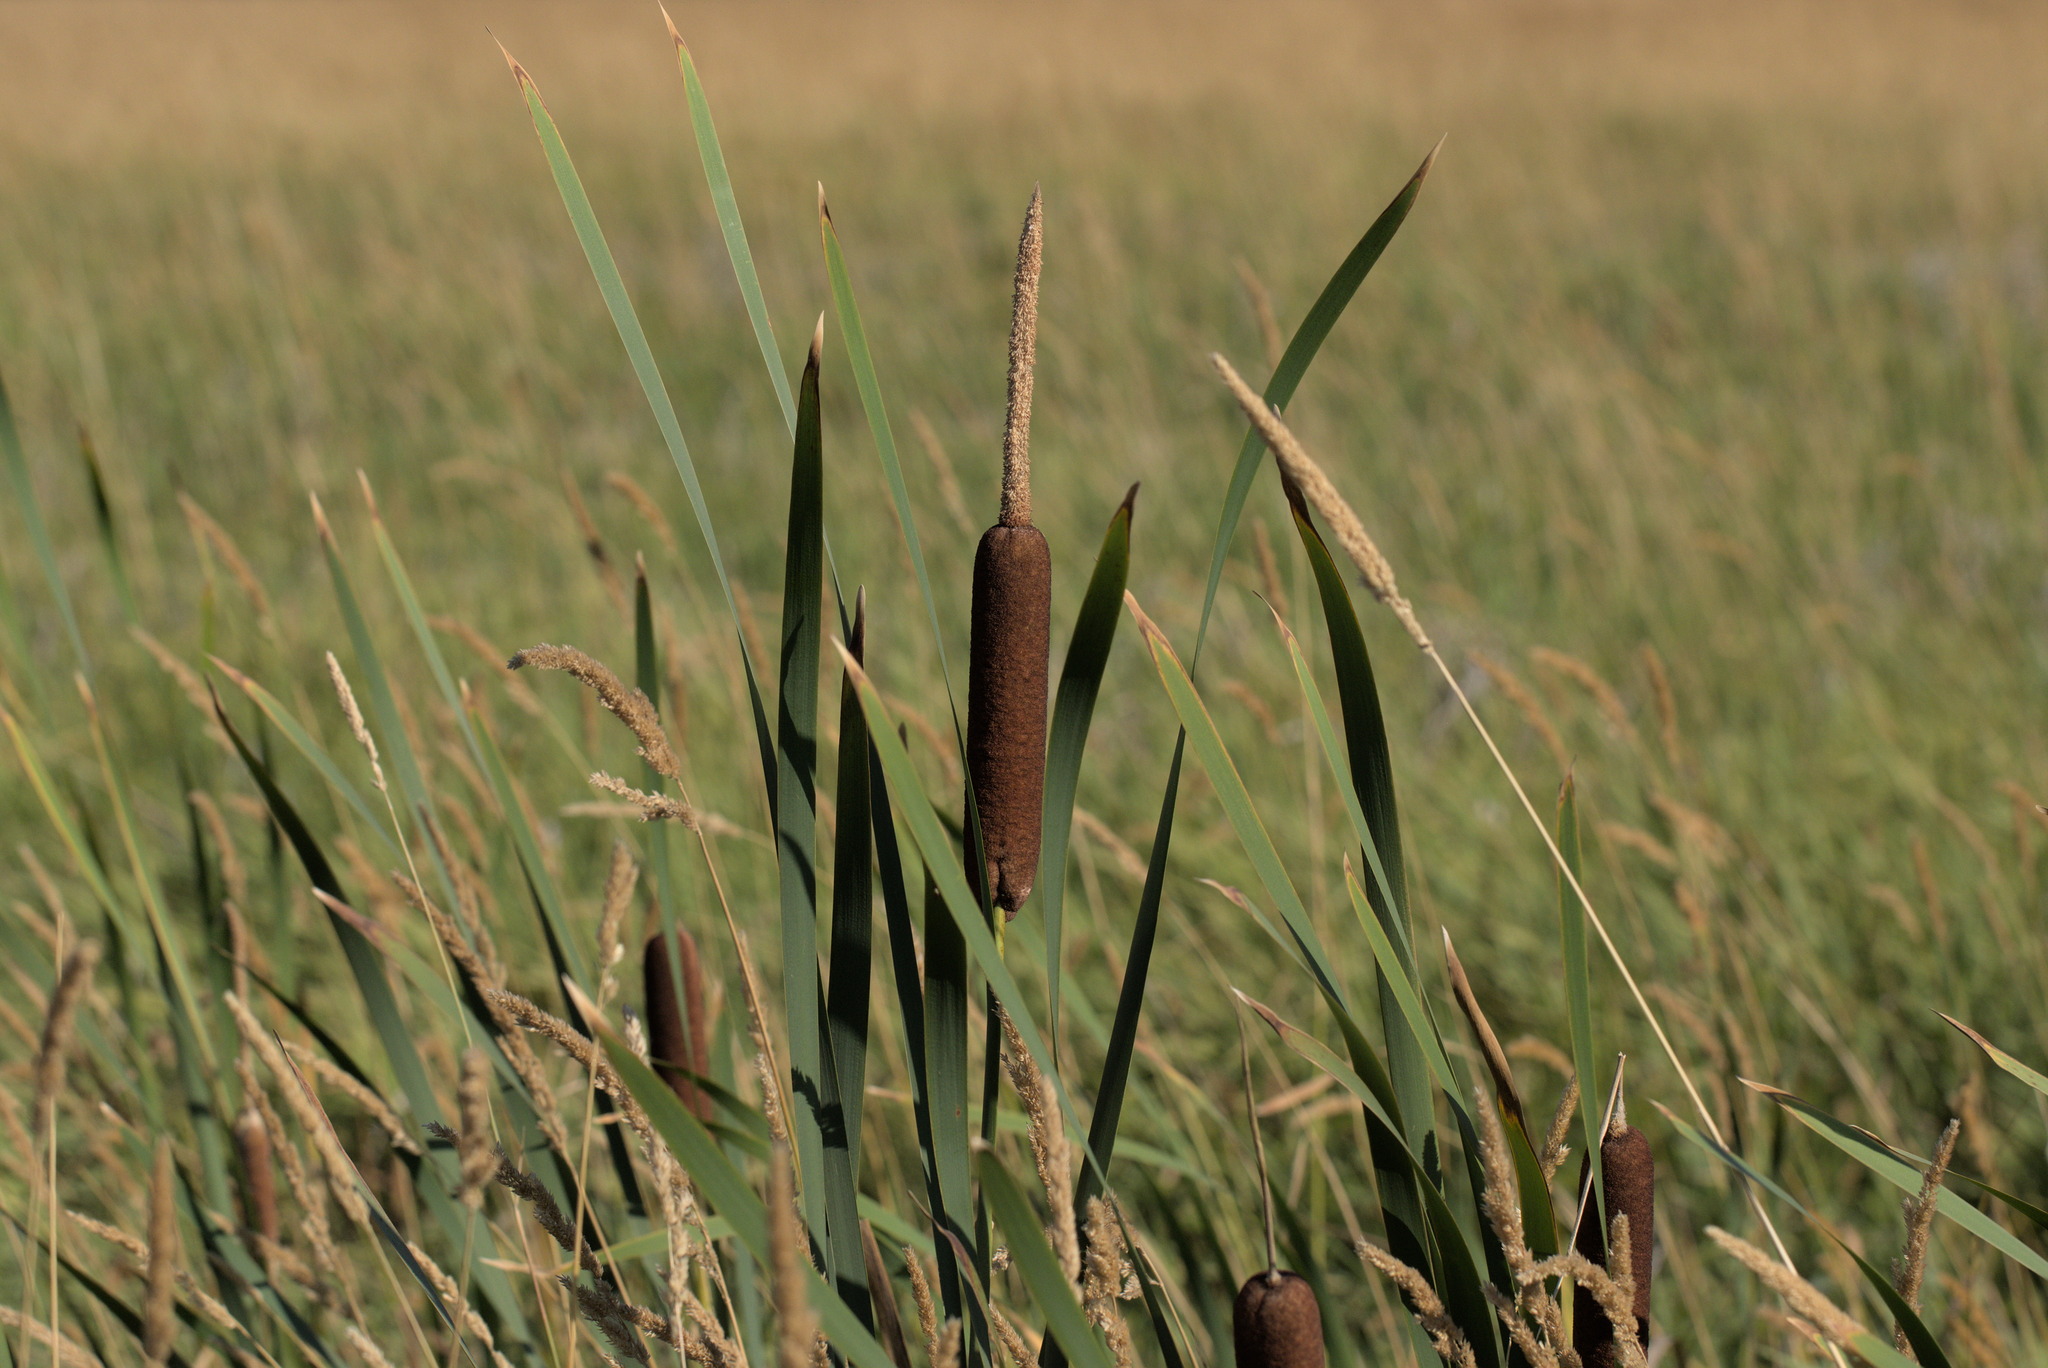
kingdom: Plantae
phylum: Tracheophyta
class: Liliopsida
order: Poales
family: Typhaceae
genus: Typha
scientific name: Typha latifolia
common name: Broadleaf cattail
